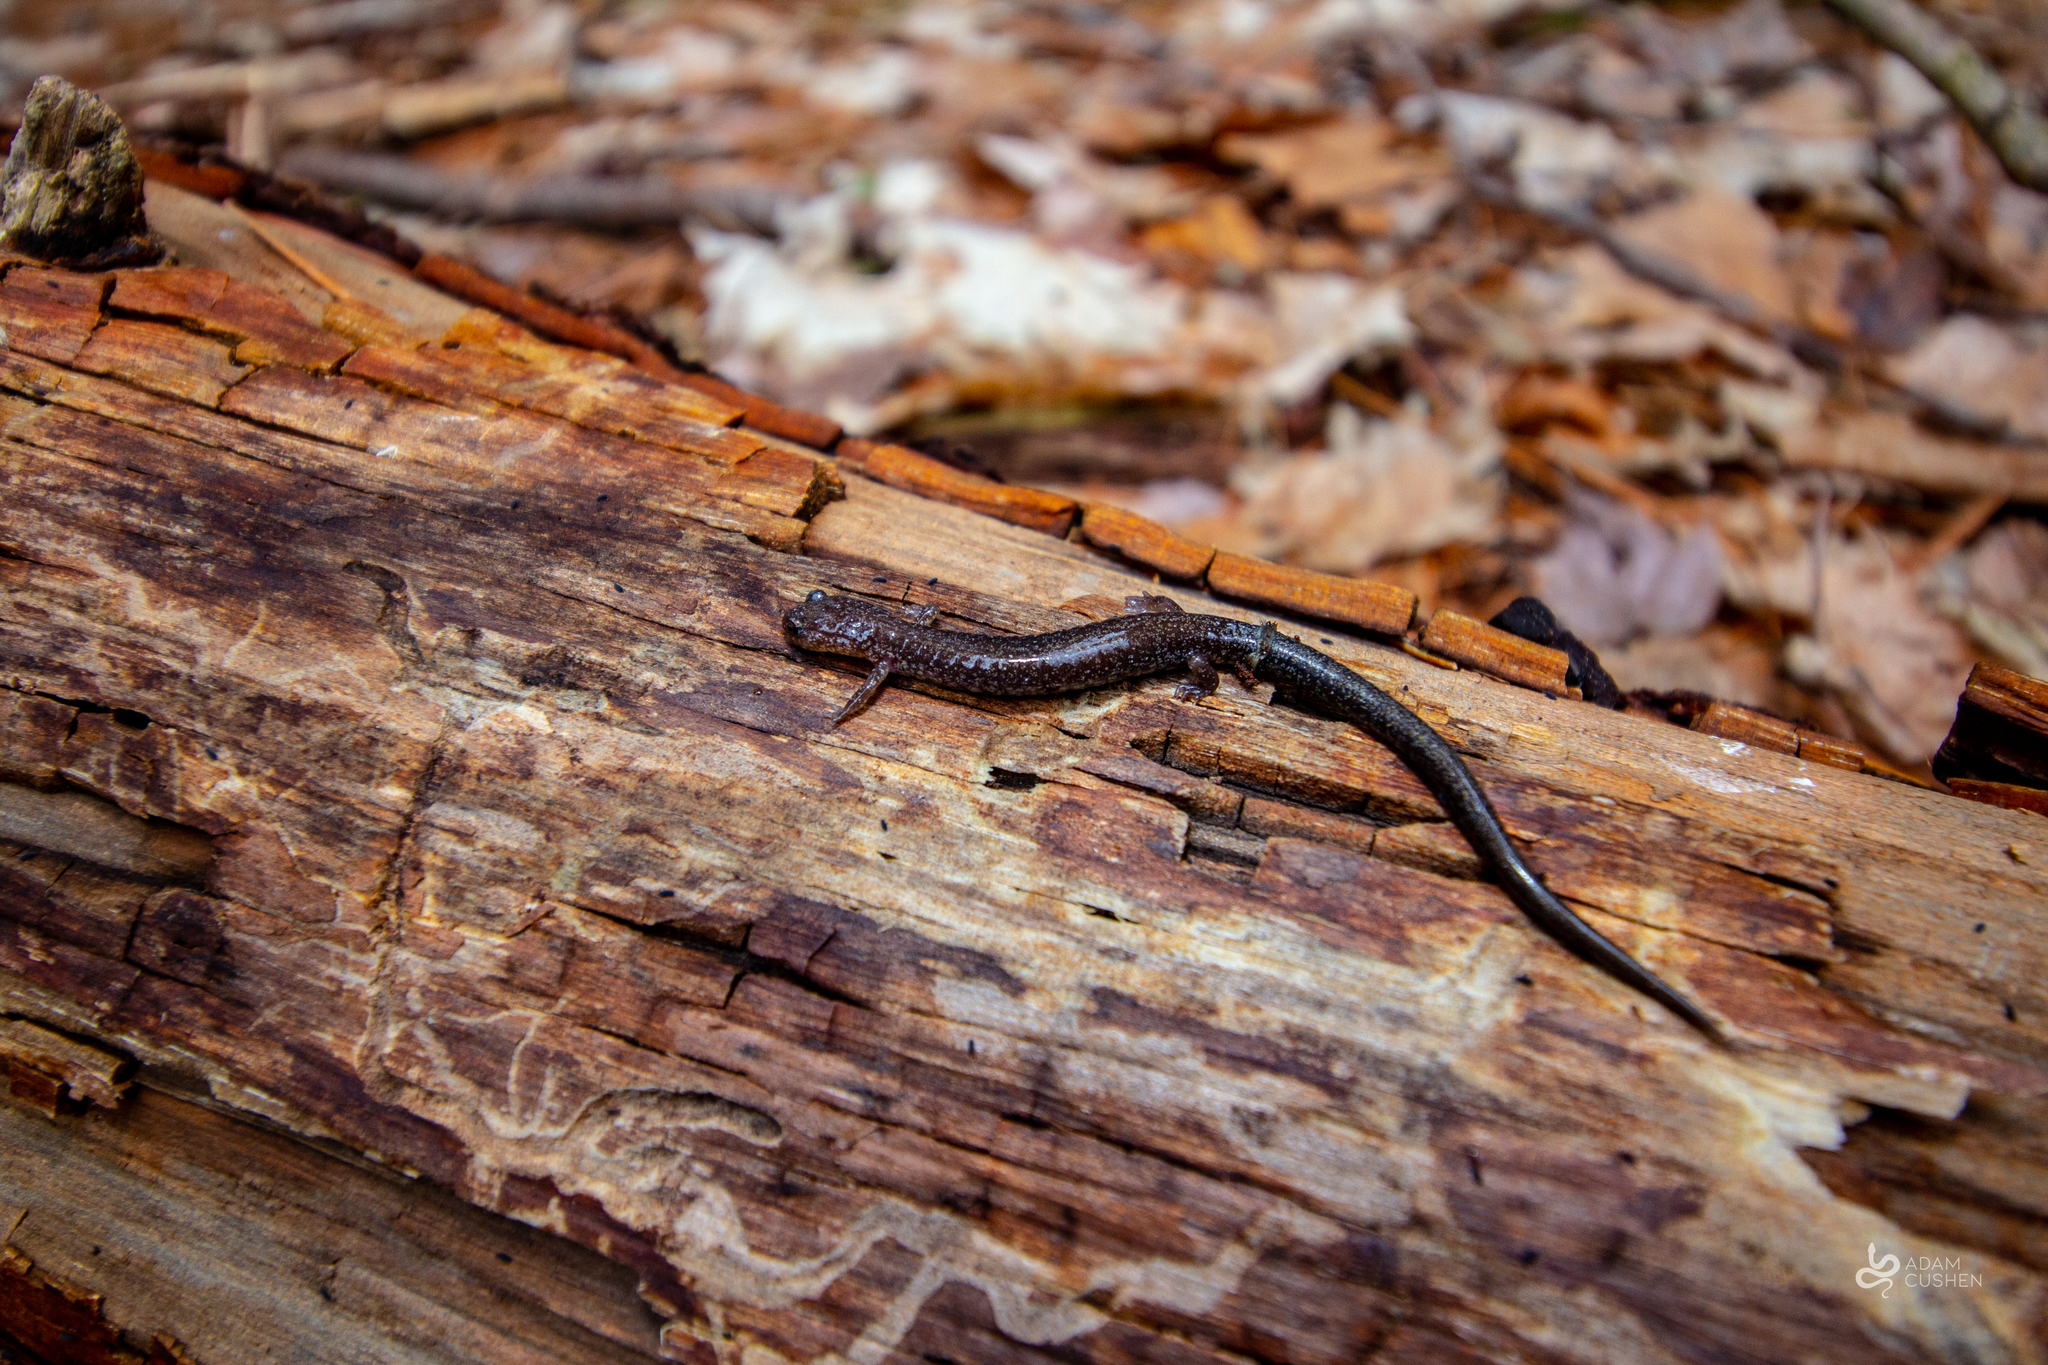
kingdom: Animalia
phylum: Chordata
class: Amphibia
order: Caudata
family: Plethodontidae
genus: Plethodon
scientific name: Plethodon cinereus
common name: Redback salamander
